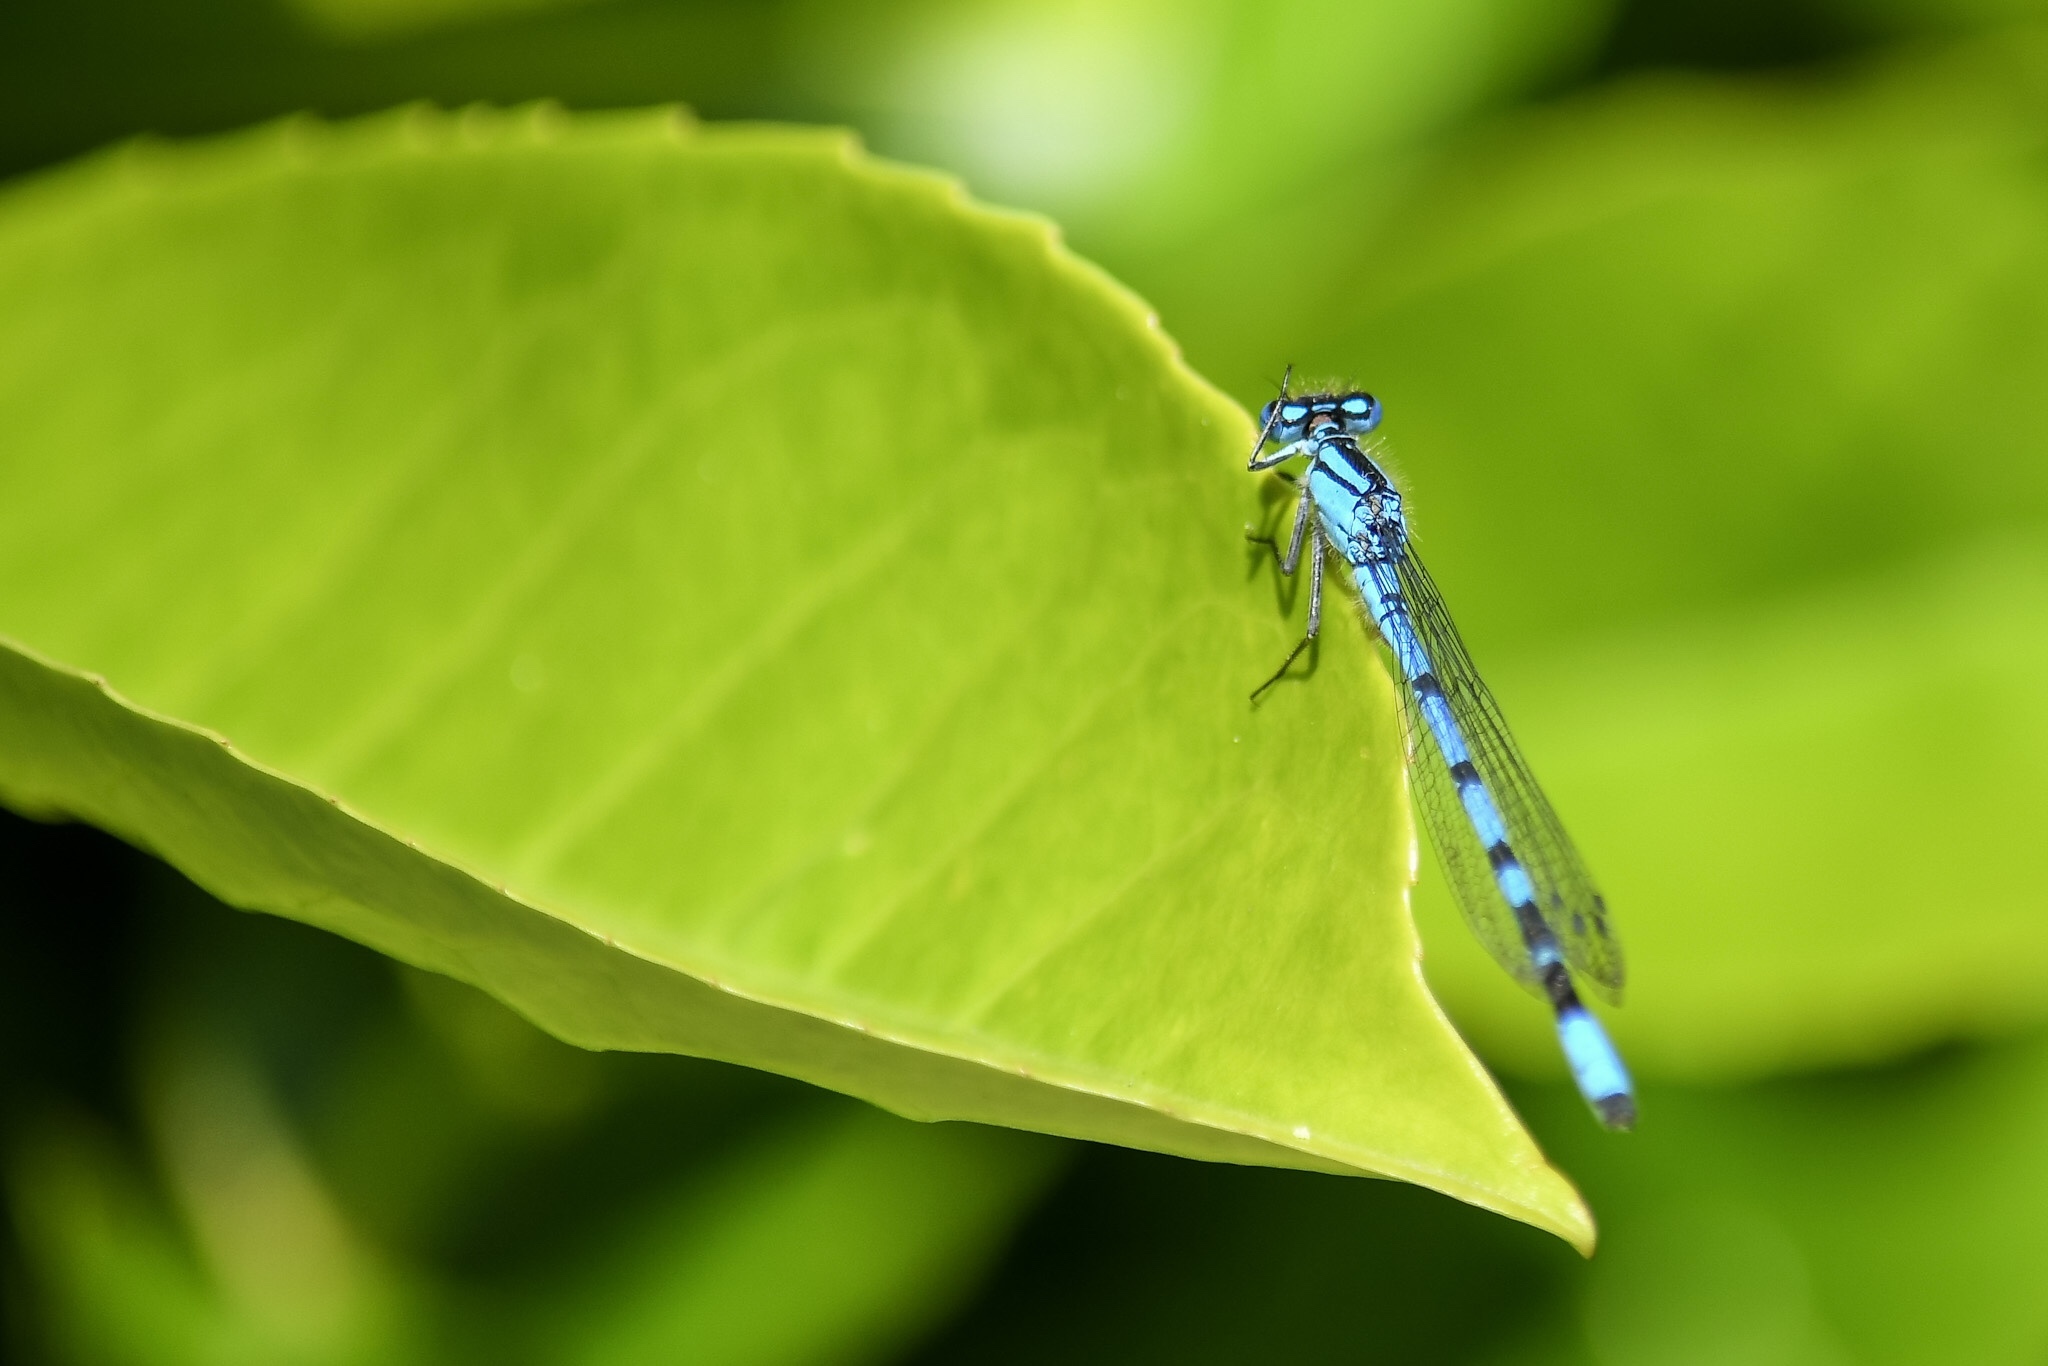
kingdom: Animalia
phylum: Arthropoda
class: Insecta
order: Odonata
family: Coenagrionidae
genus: Enallagma
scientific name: Enallagma cyathigerum
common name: Common blue damselfly
